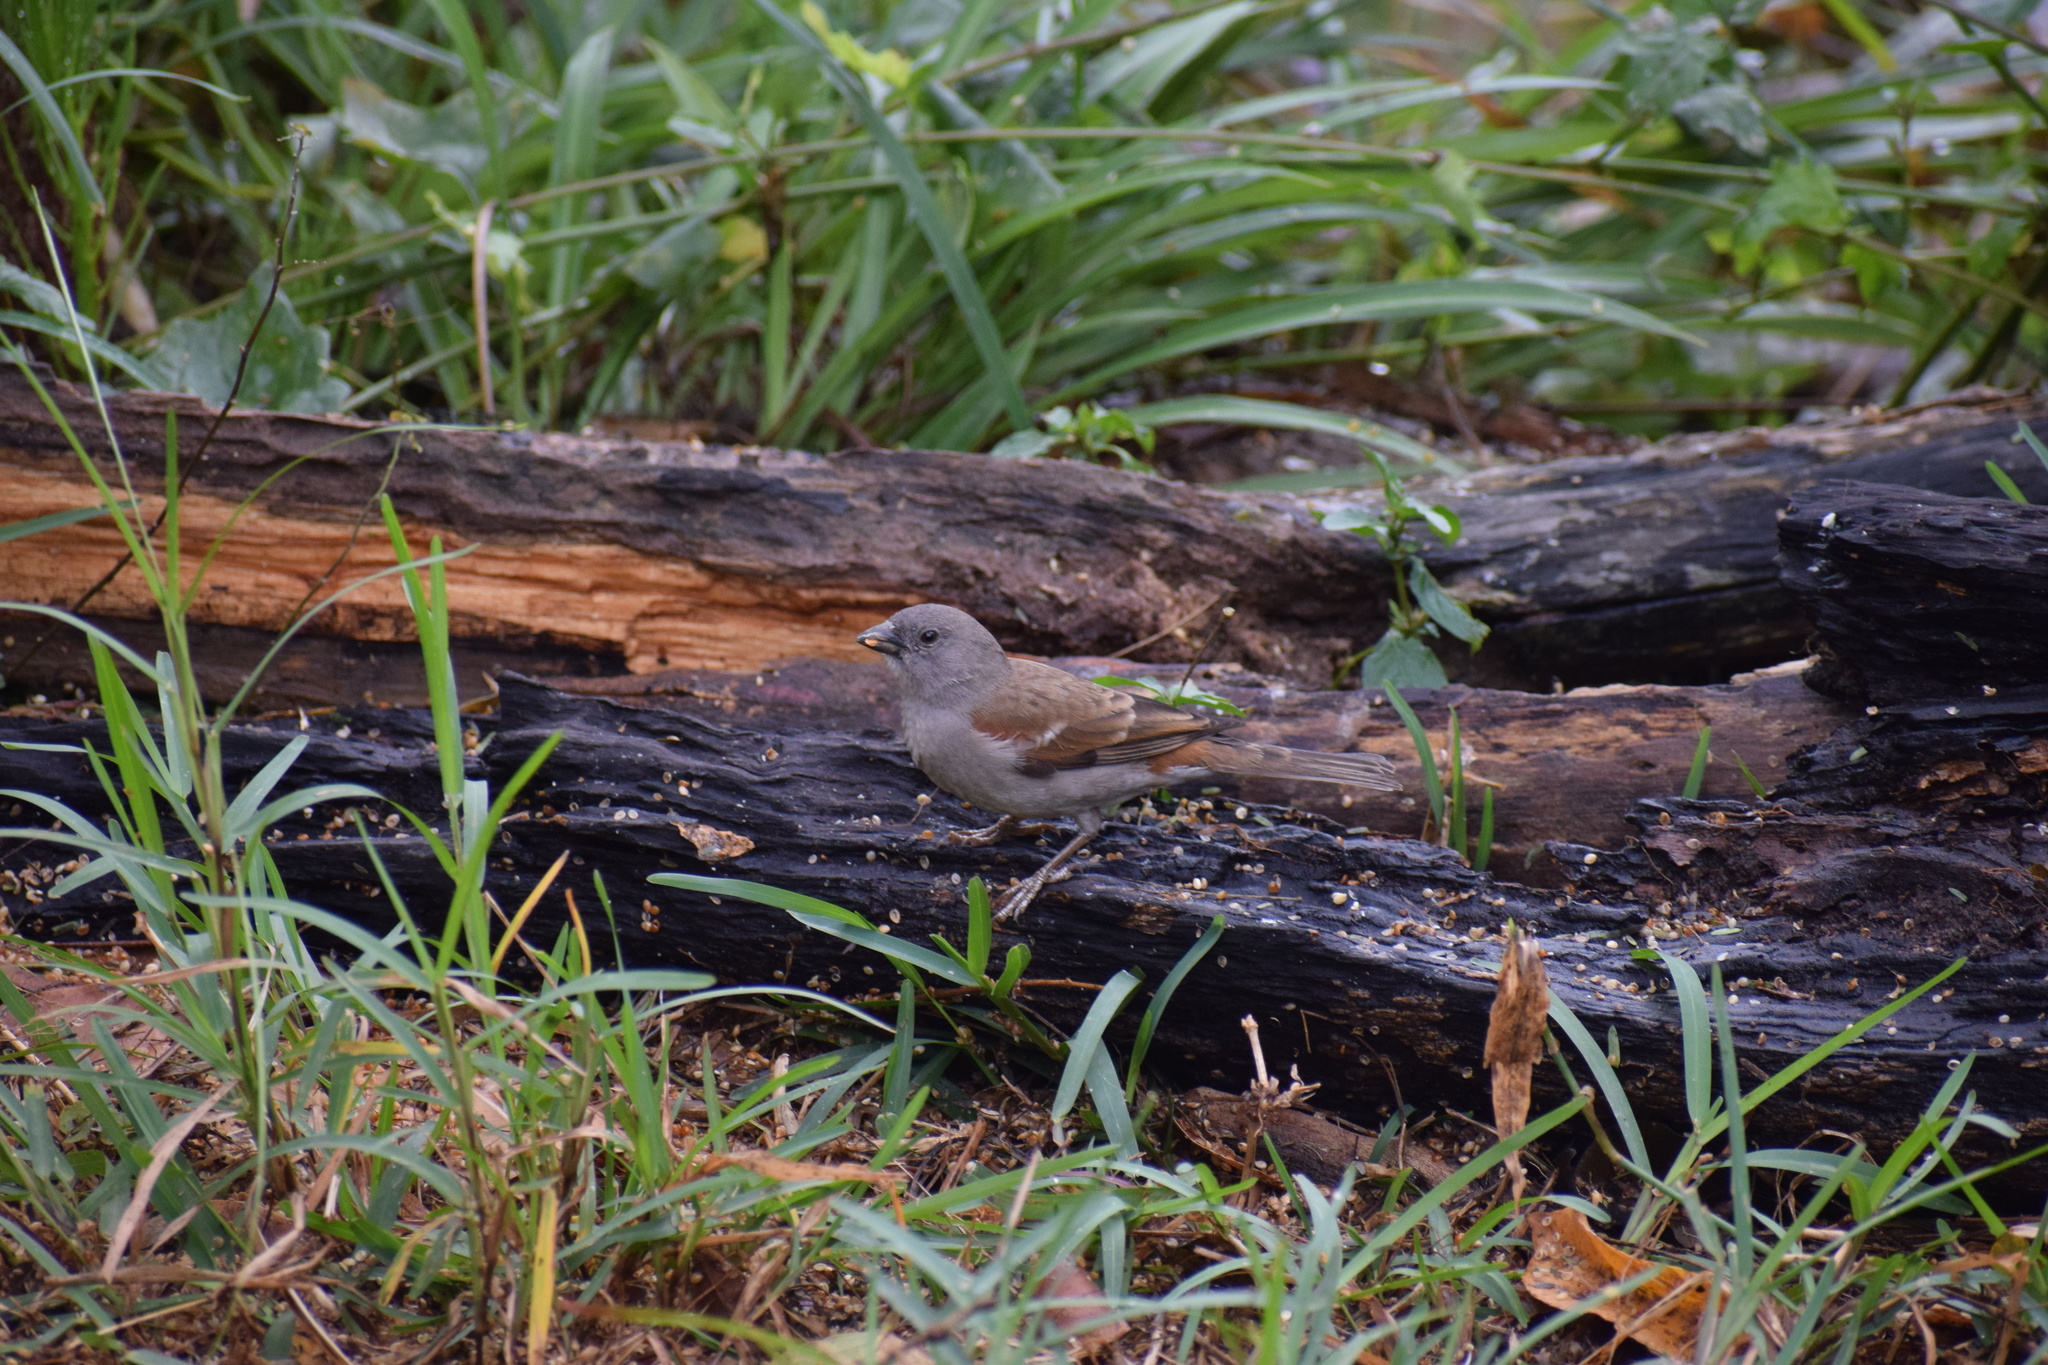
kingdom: Animalia
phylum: Chordata
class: Aves
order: Passeriformes
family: Passeridae
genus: Passer
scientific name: Passer diffusus
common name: Southern grey-headed sparrow
